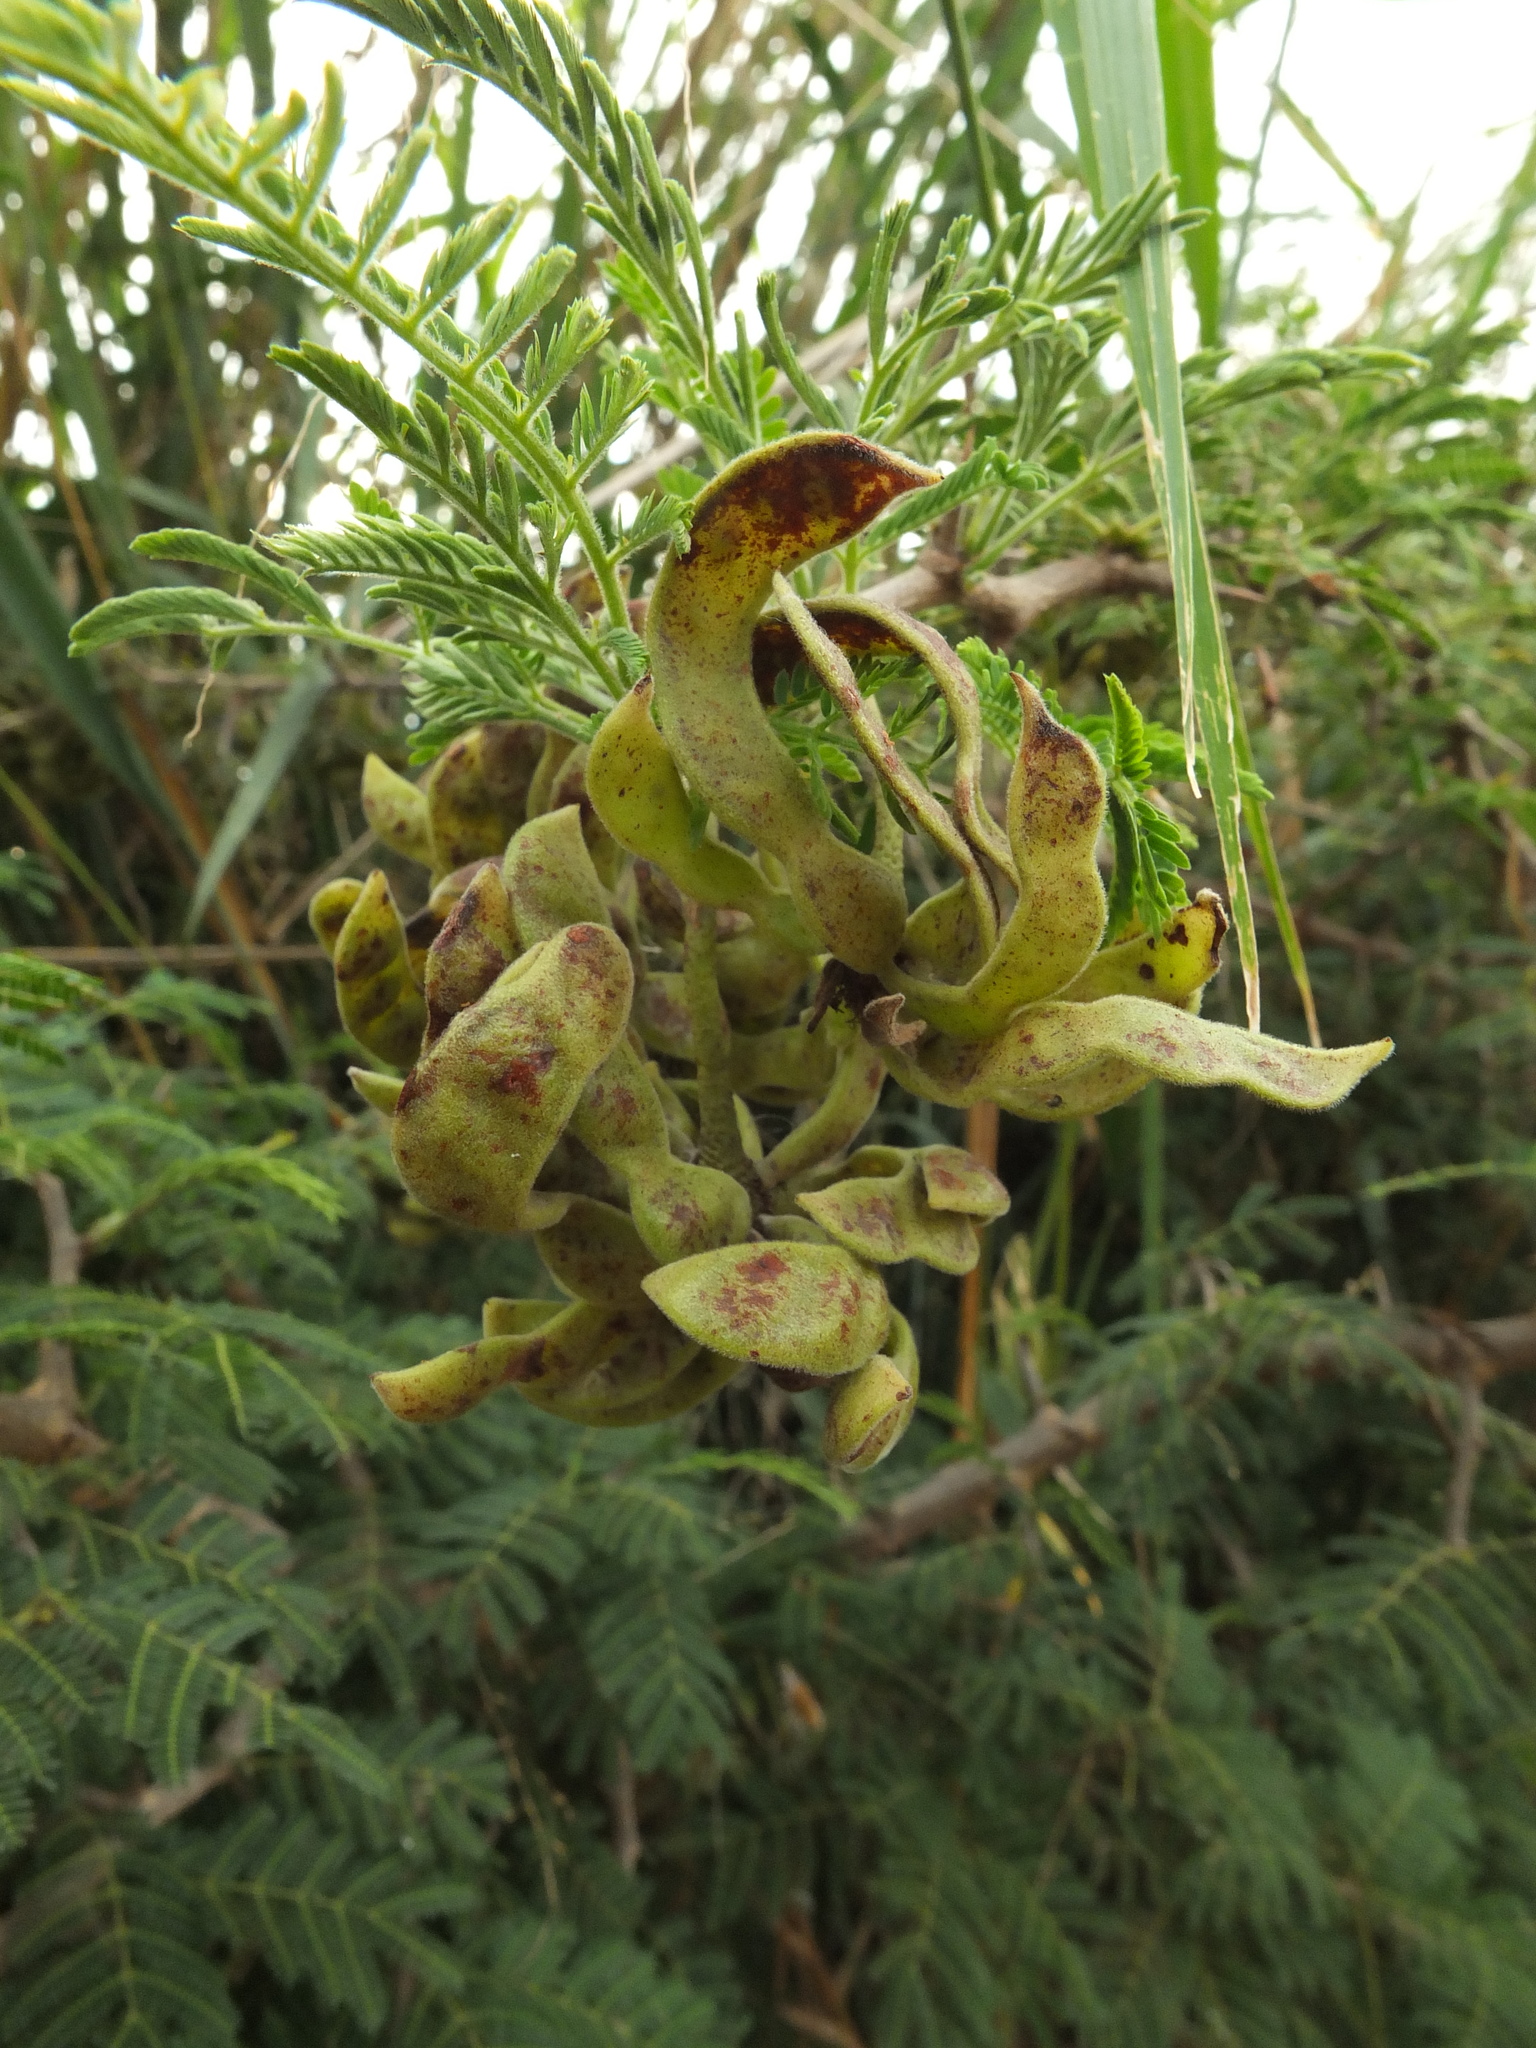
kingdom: Plantae
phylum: Tracheophyta
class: Magnoliopsida
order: Fabales
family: Fabaceae
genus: Dichrostachys
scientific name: Dichrostachys cinerea
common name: Sicklebush
